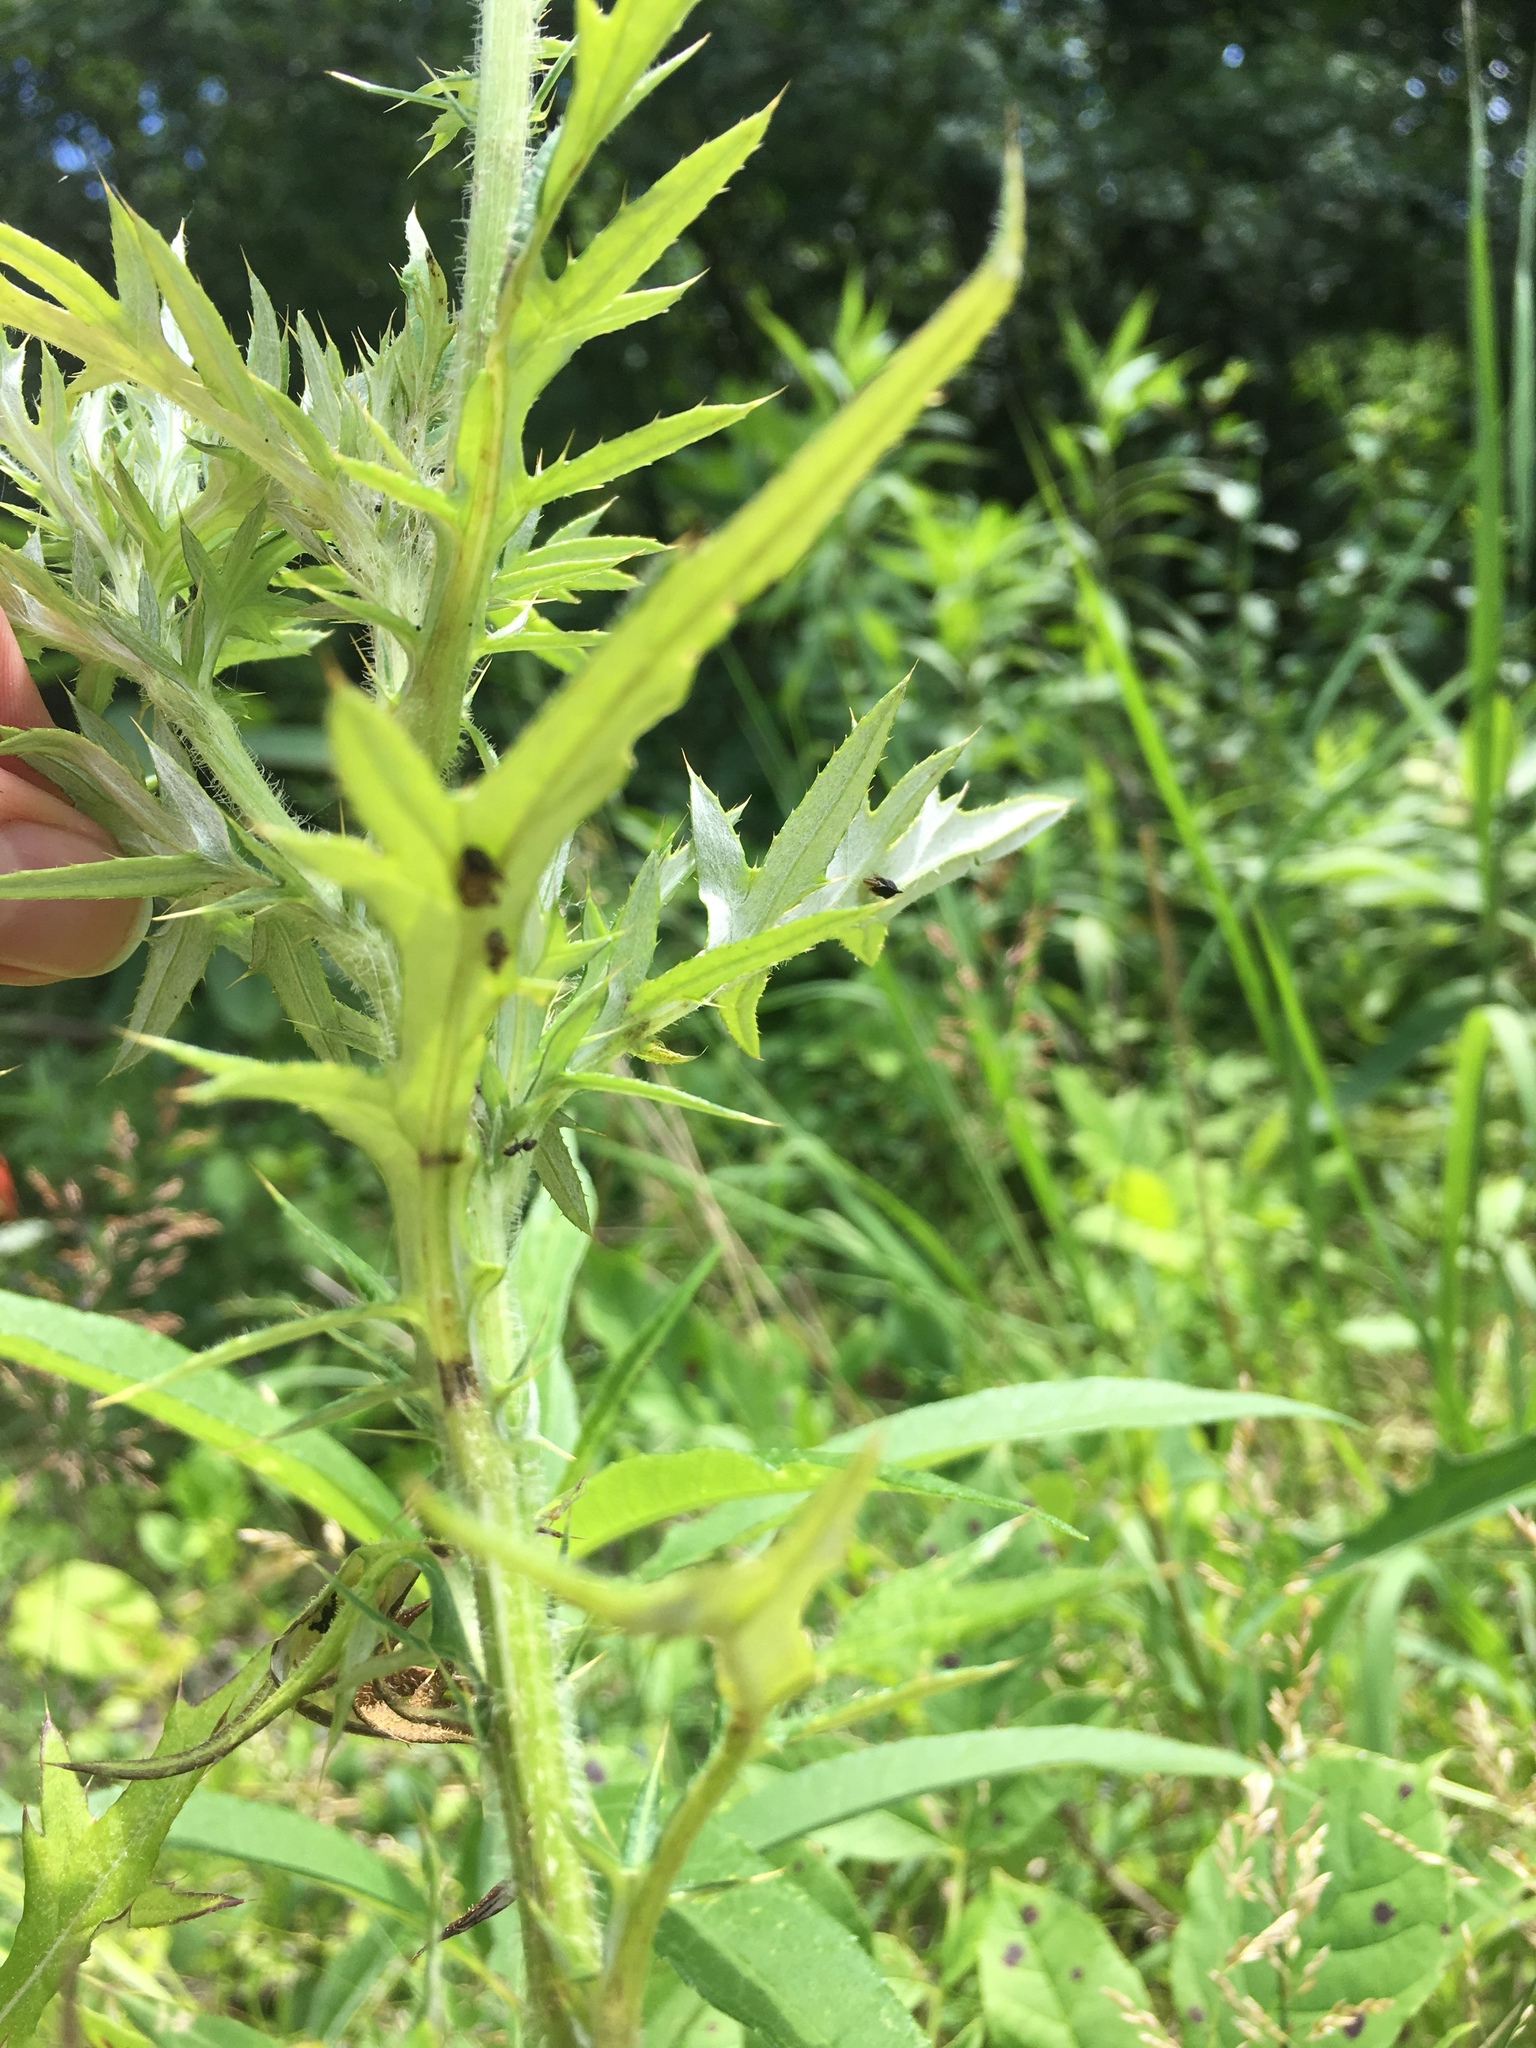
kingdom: Plantae
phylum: Tracheophyta
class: Magnoliopsida
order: Asterales
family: Asteraceae
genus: Cirsium
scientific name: Cirsium discolor
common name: Field thistle
